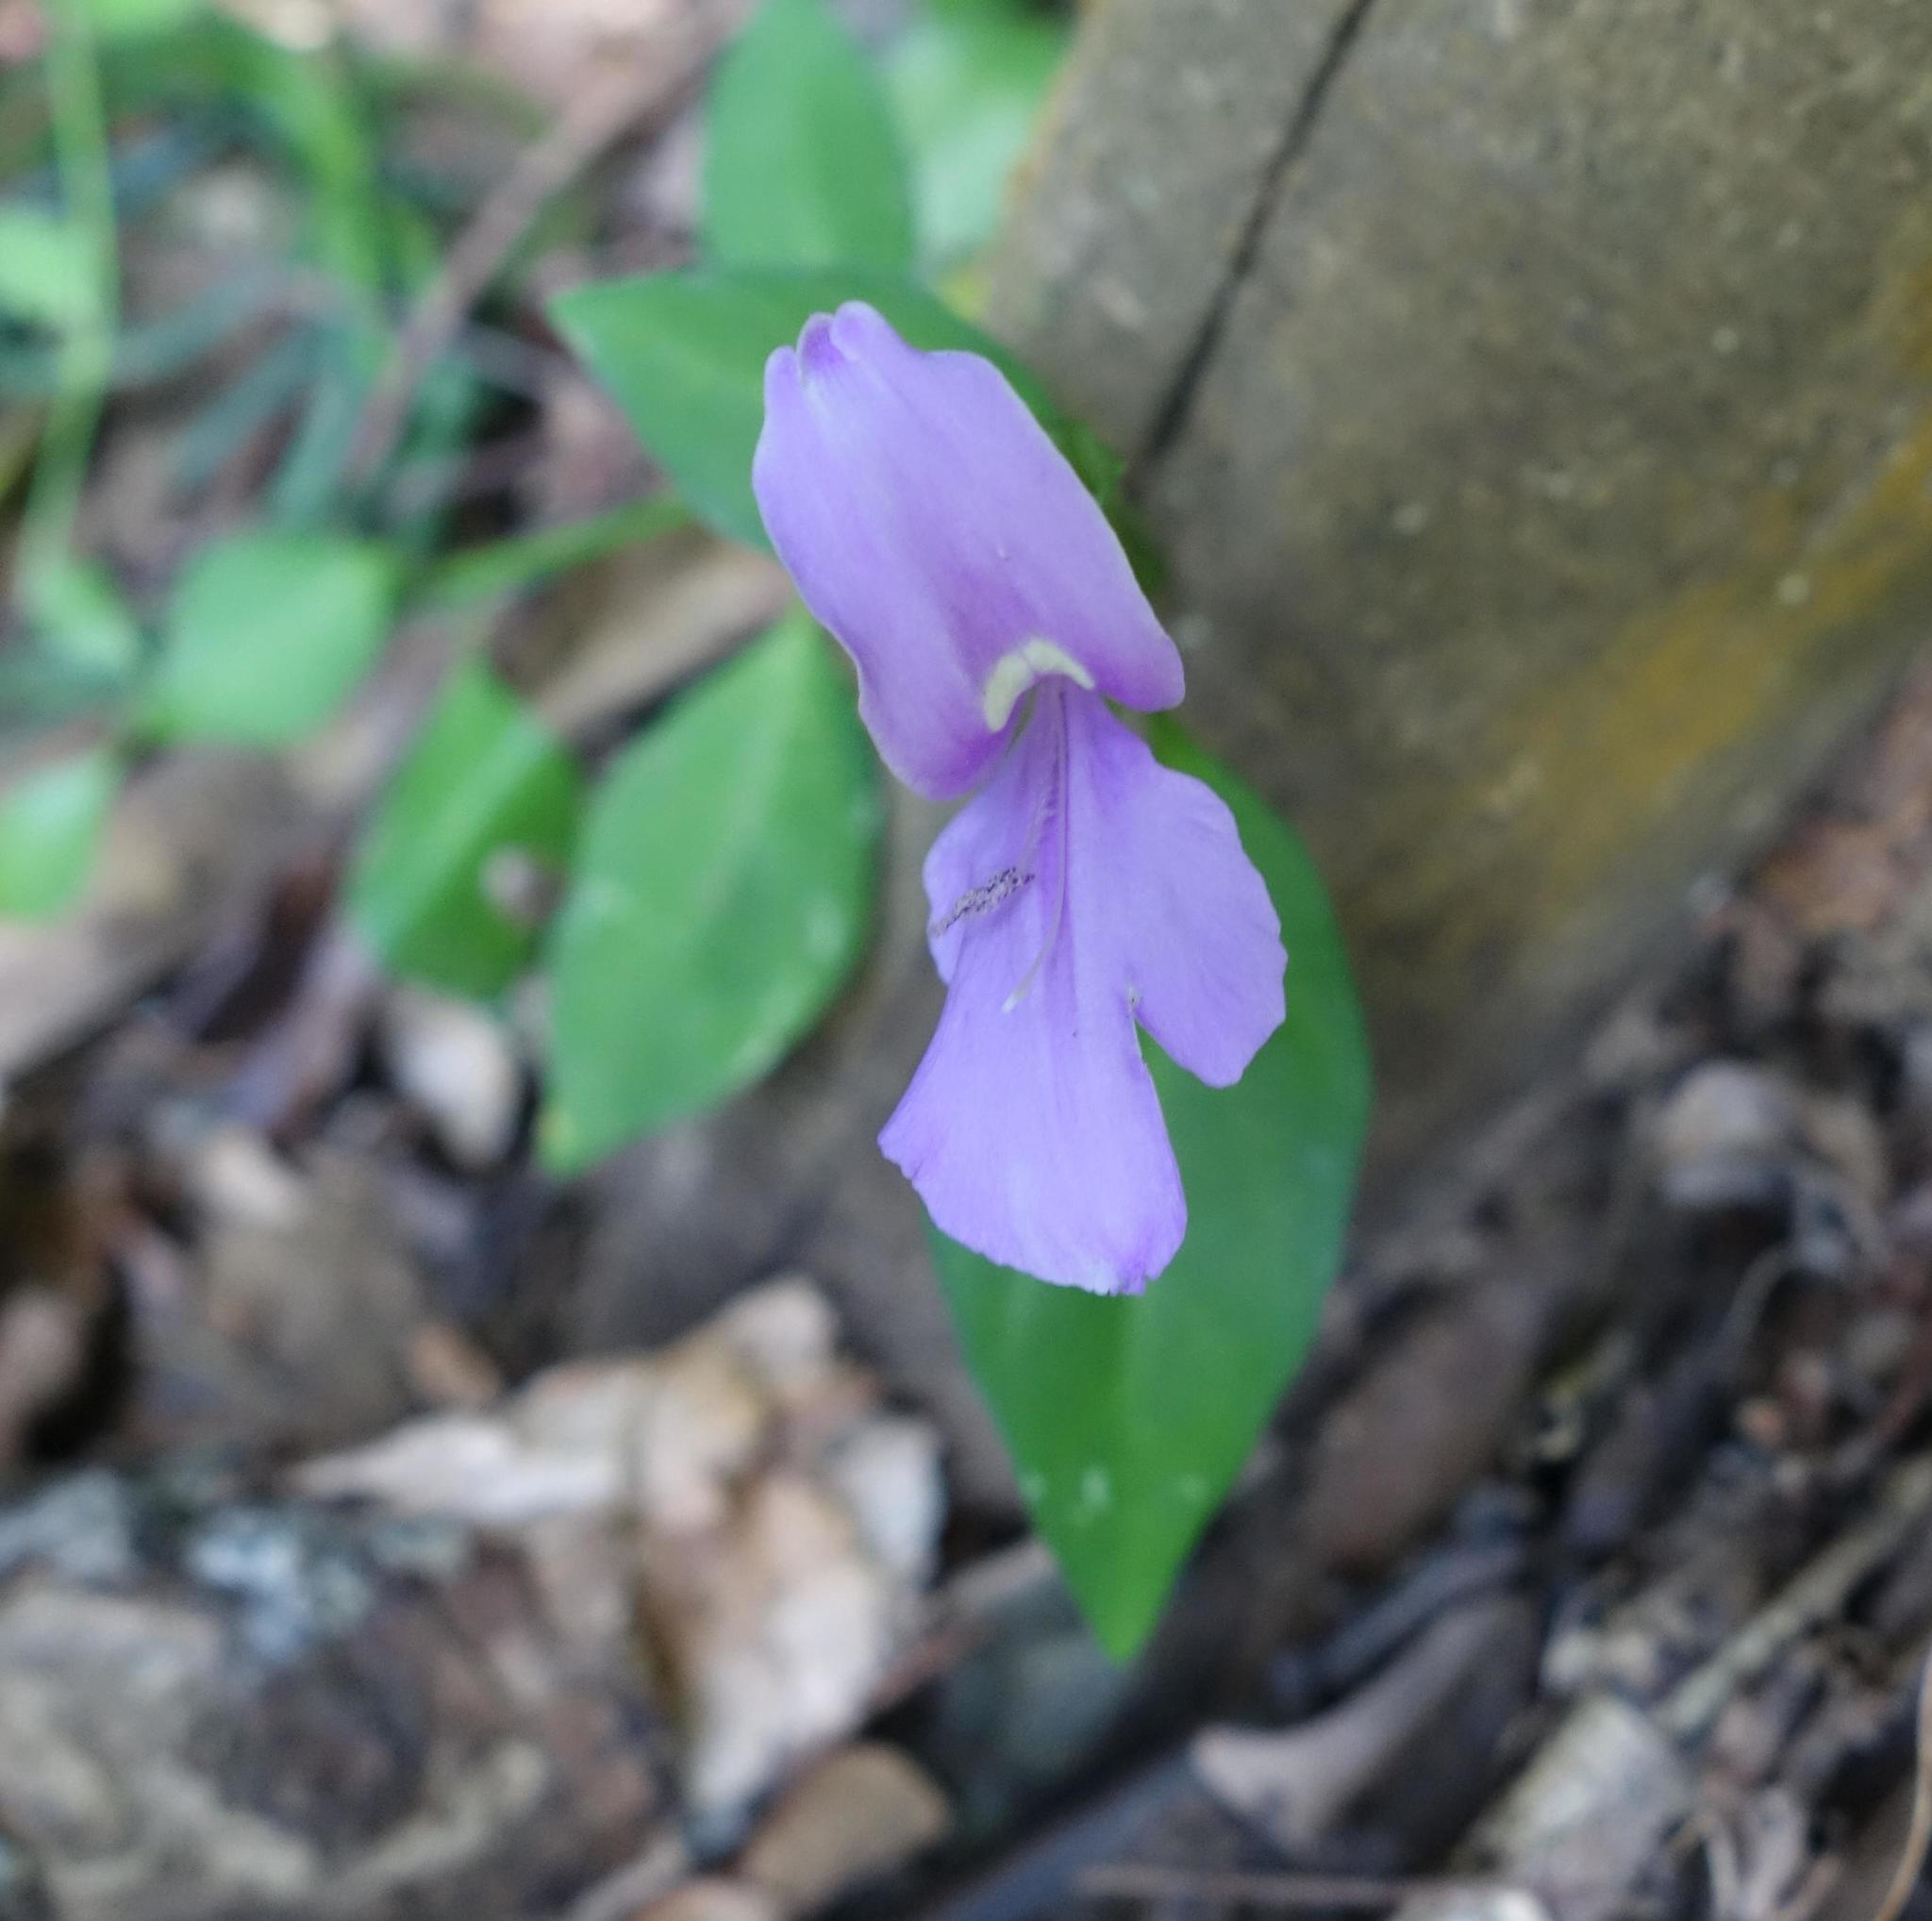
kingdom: Plantae
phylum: Tracheophyta
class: Magnoliopsida
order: Lamiales
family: Acanthaceae
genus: Dicliptera
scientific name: Dicliptera tinctoria
